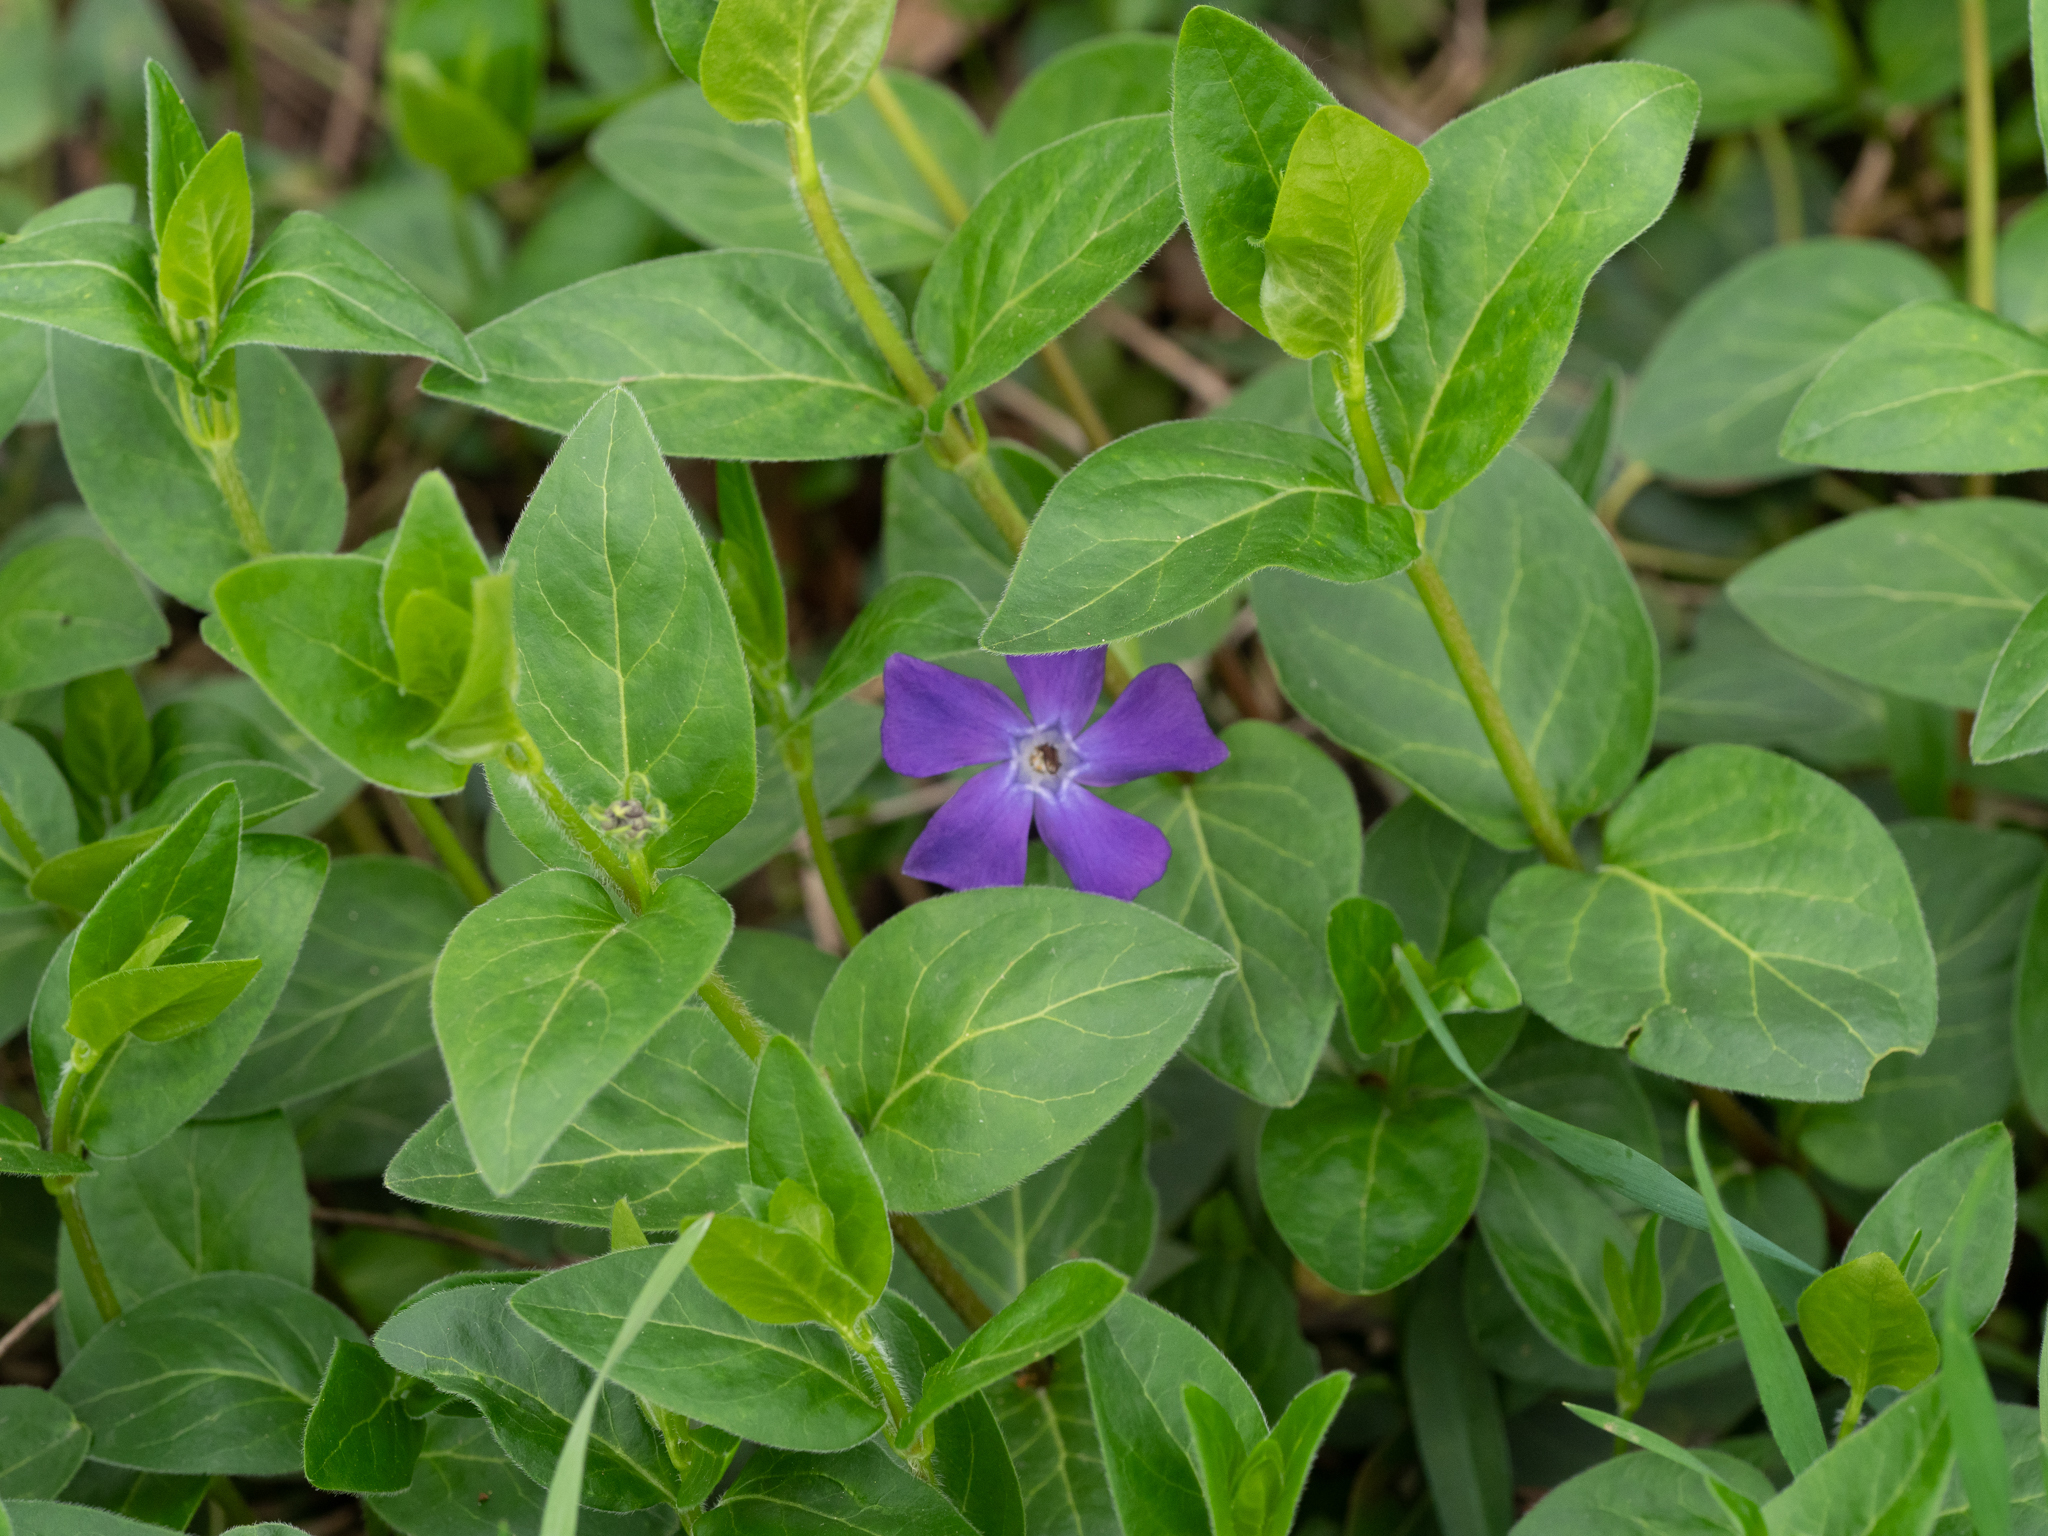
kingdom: Plantae
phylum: Tracheophyta
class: Magnoliopsida
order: Gentianales
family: Apocynaceae
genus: Vinca
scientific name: Vinca major
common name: Greater periwinkle
